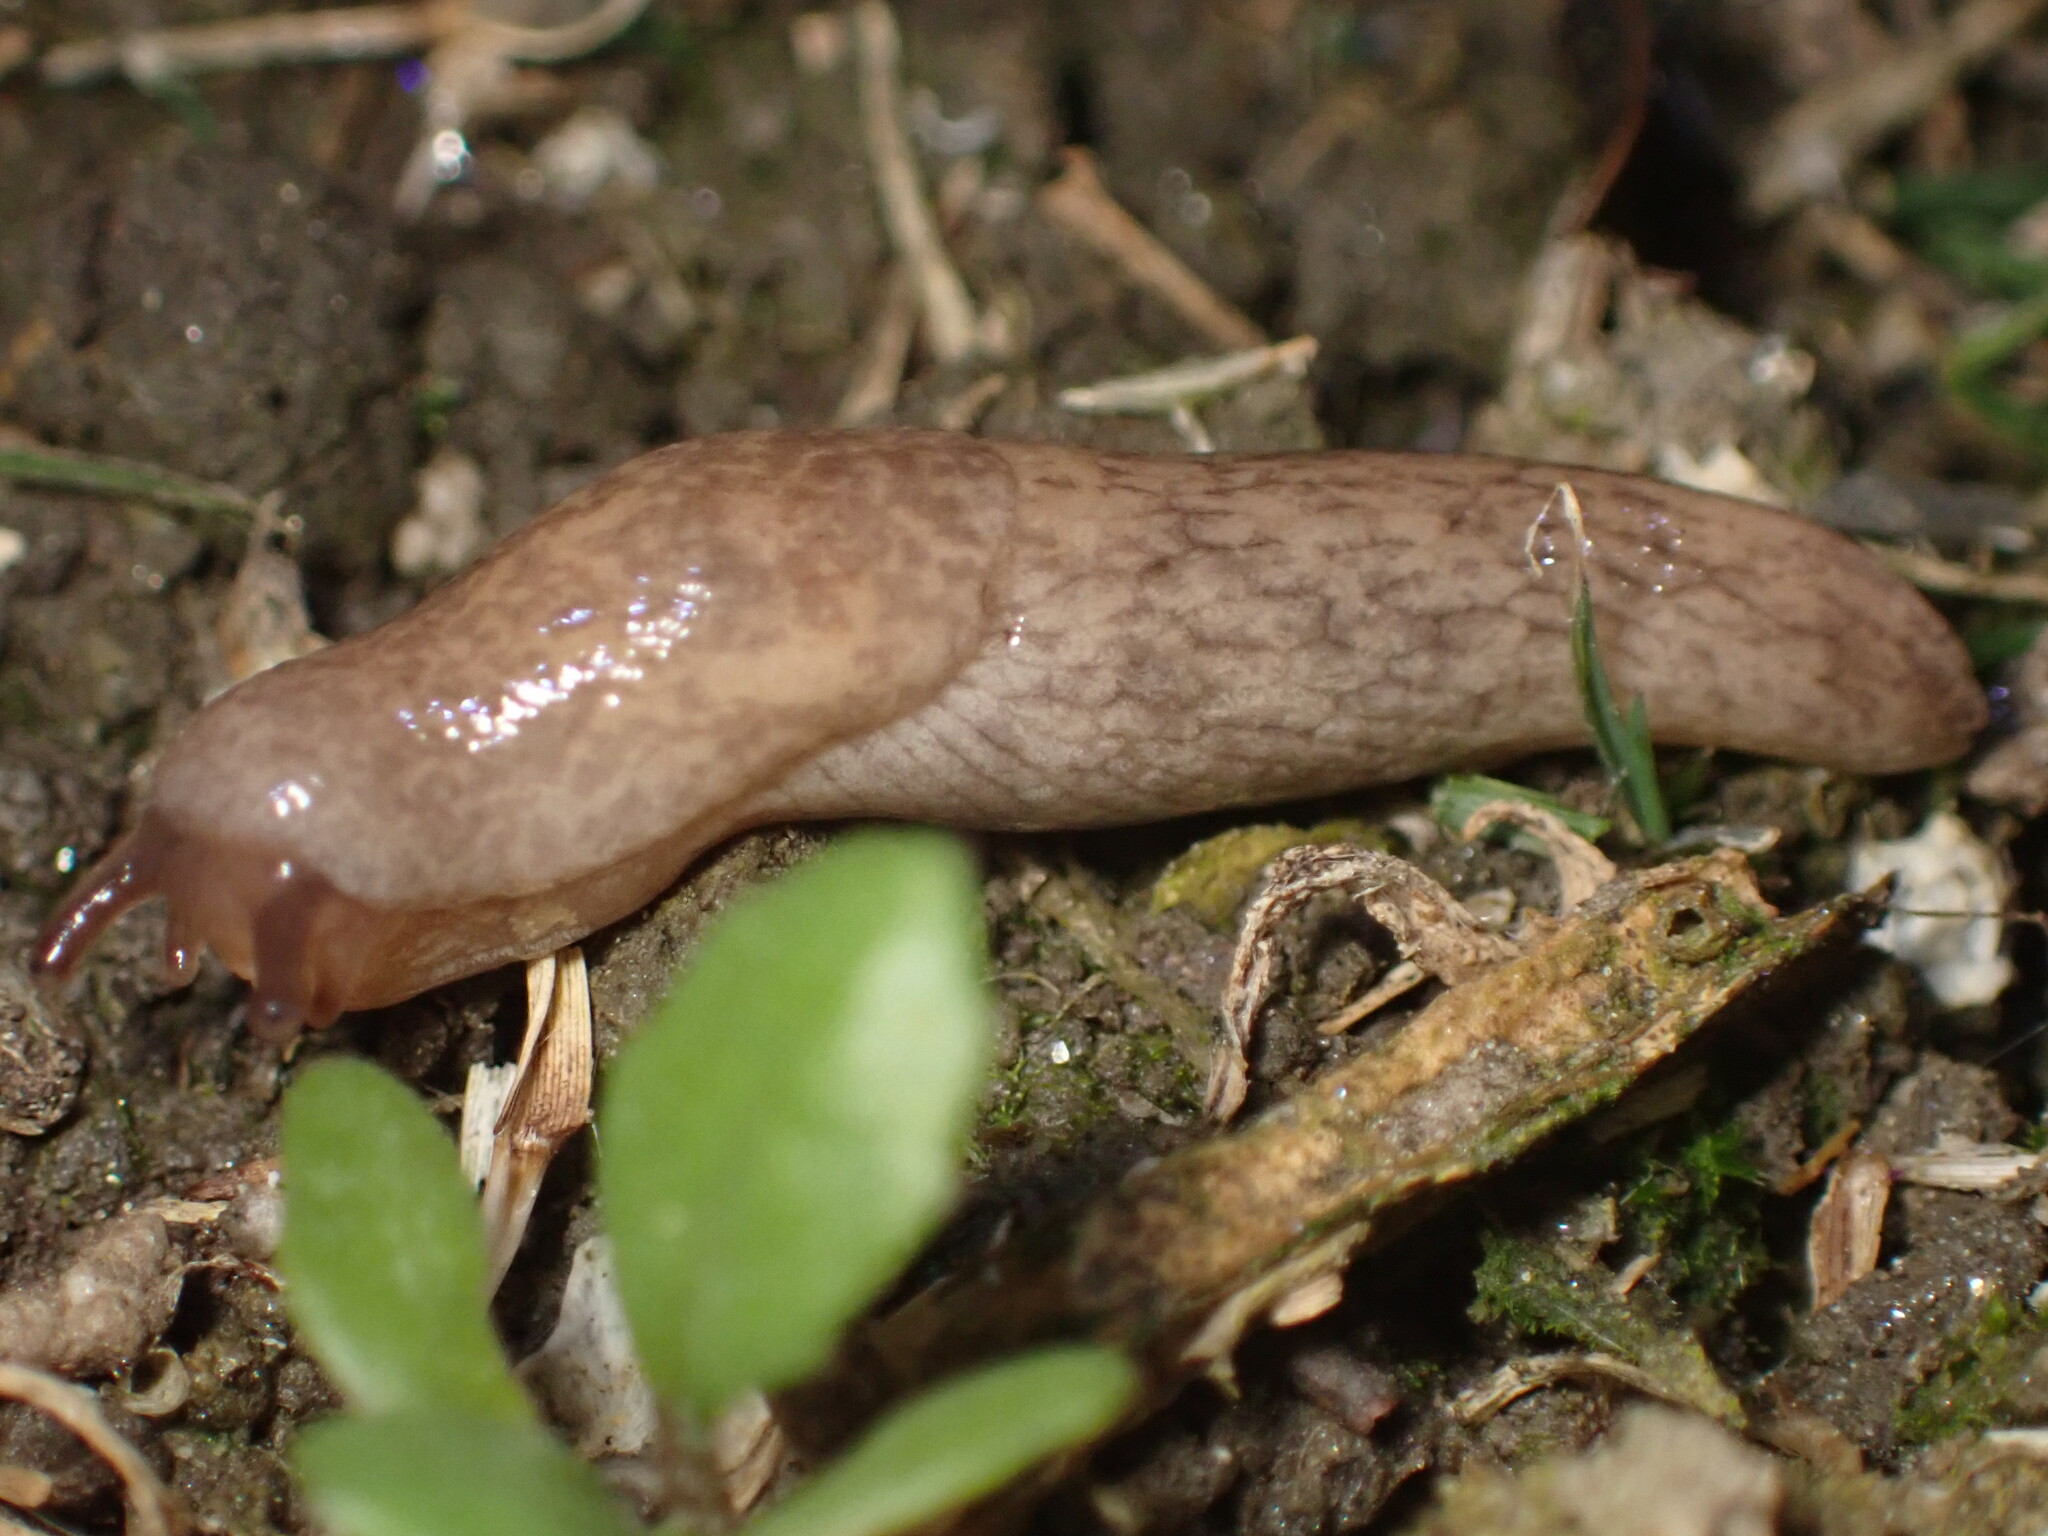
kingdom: Animalia
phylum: Mollusca
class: Gastropoda
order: Stylommatophora
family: Agriolimacidae
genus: Deroceras
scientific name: Deroceras reticulatum
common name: Gray field slug
